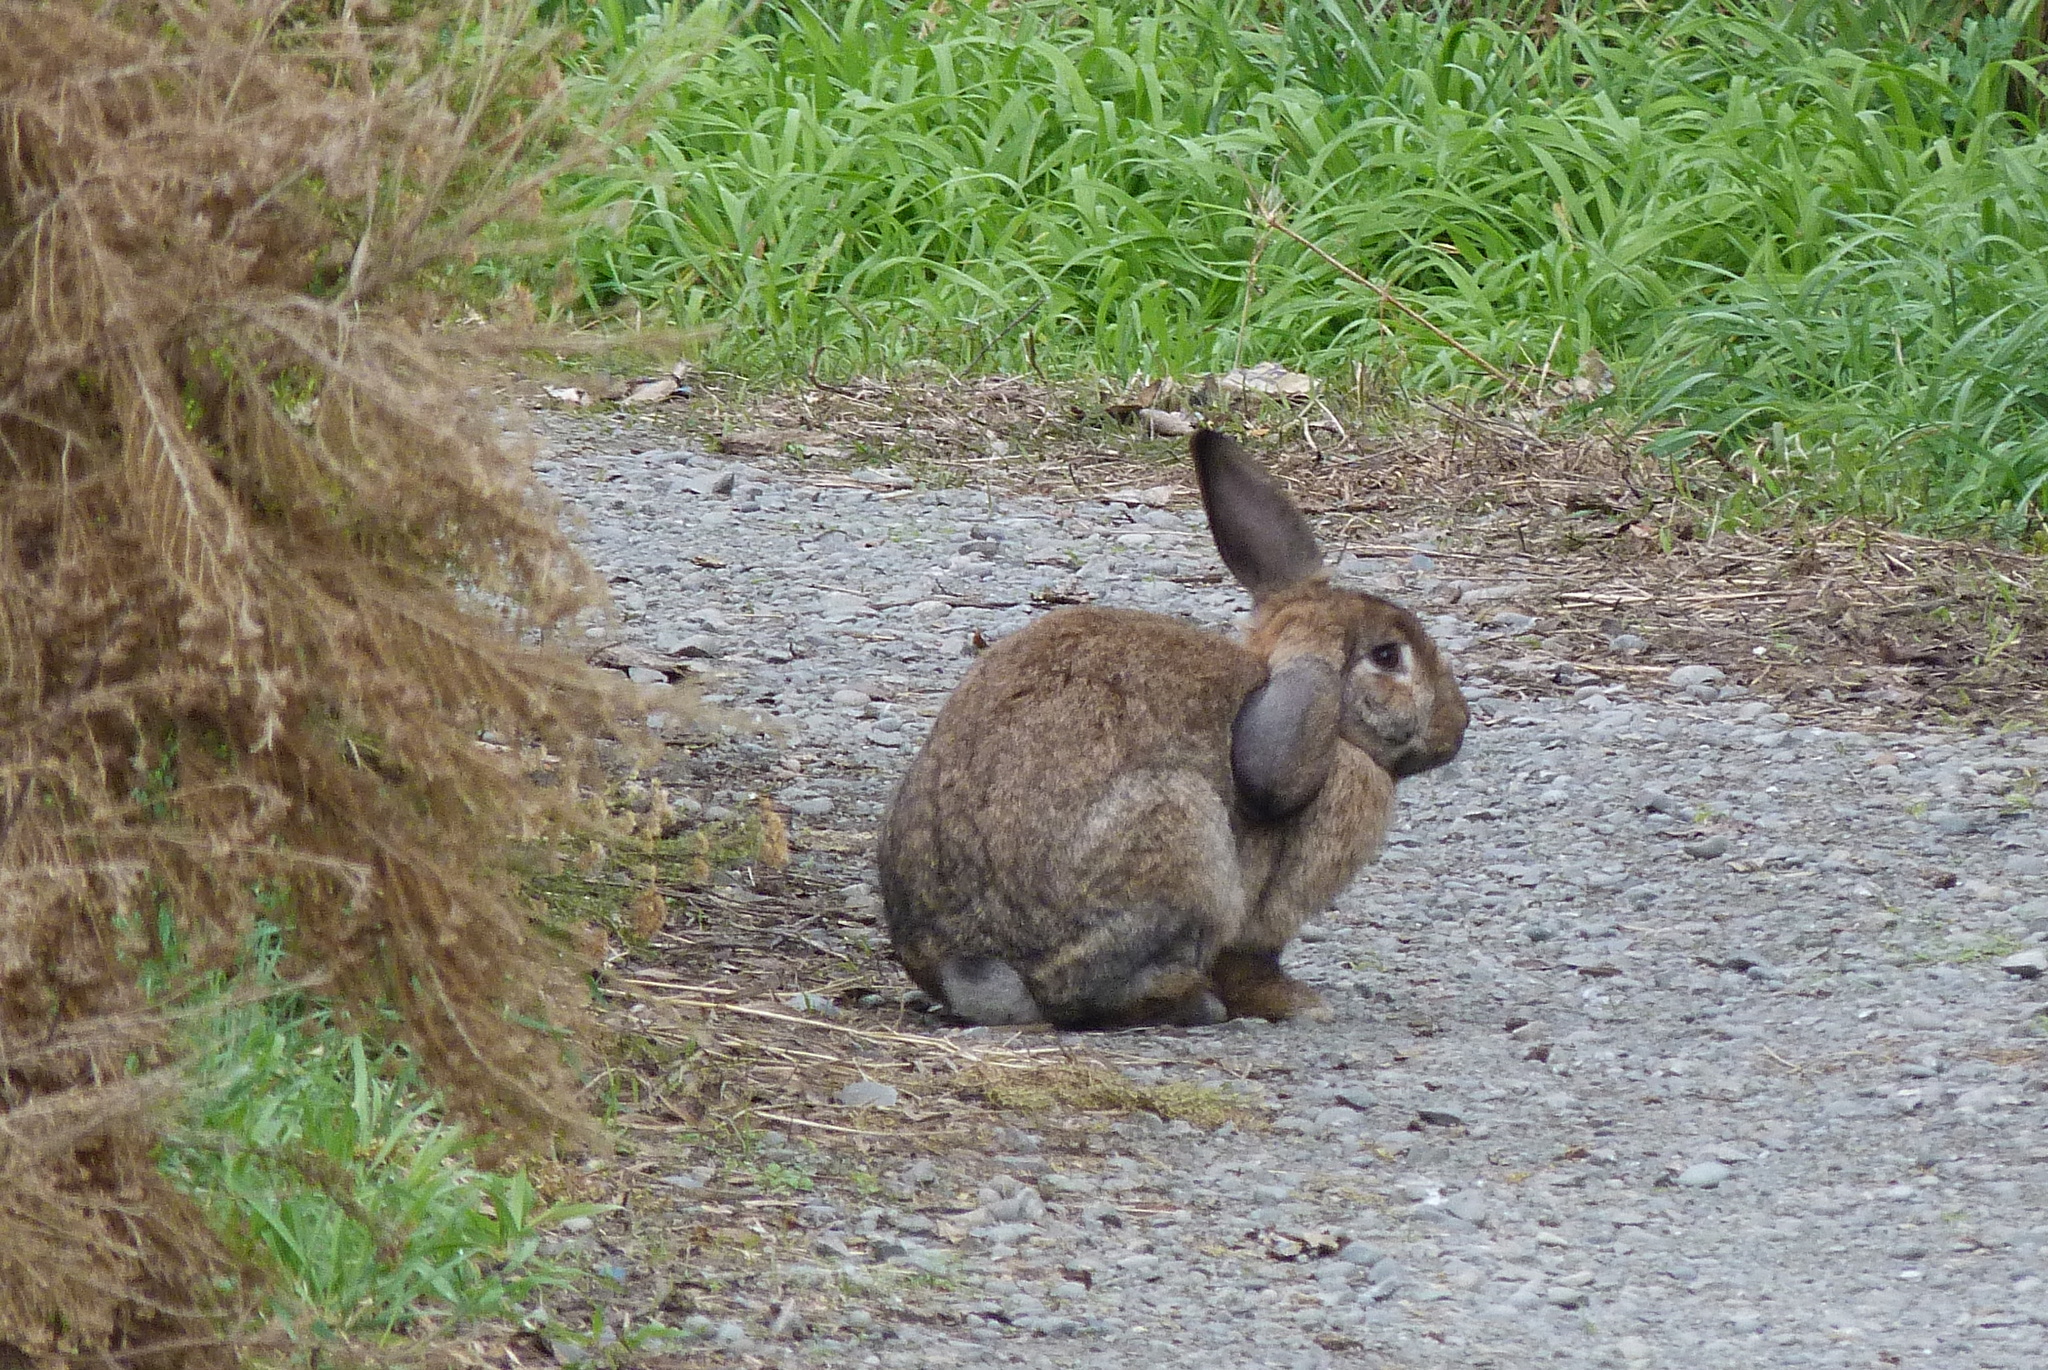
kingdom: Animalia
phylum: Chordata
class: Mammalia
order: Lagomorpha
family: Leporidae
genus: Oryctolagus
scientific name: Oryctolagus cuniculus
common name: European rabbit
